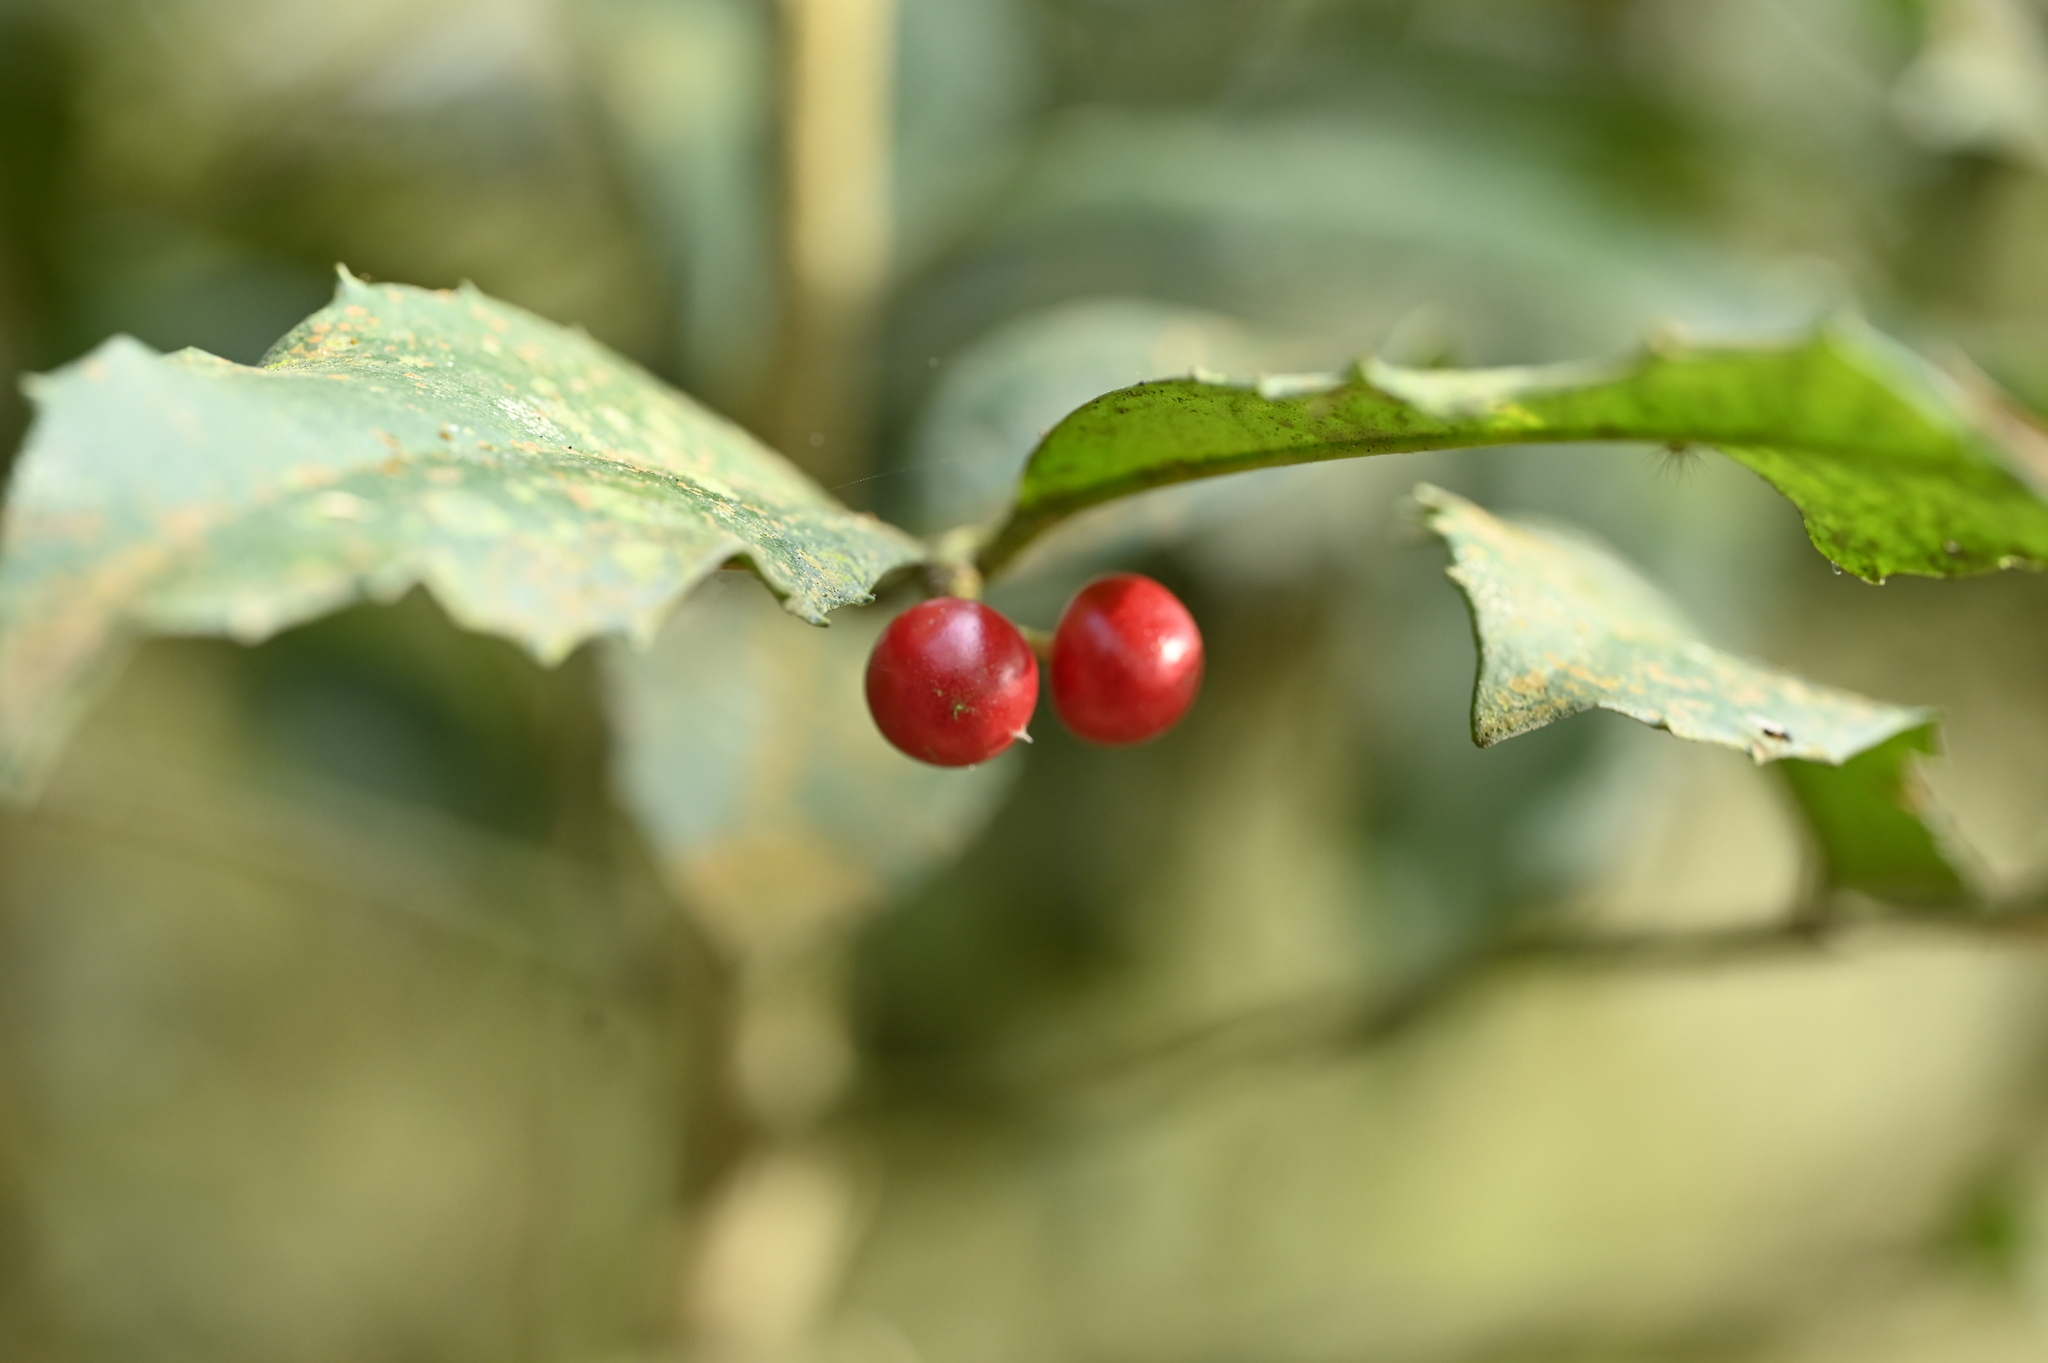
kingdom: Plantae
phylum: Tracheophyta
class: Magnoliopsida
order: Garryales
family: Garryaceae
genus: Aucuba
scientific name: Aucuba chinensis
